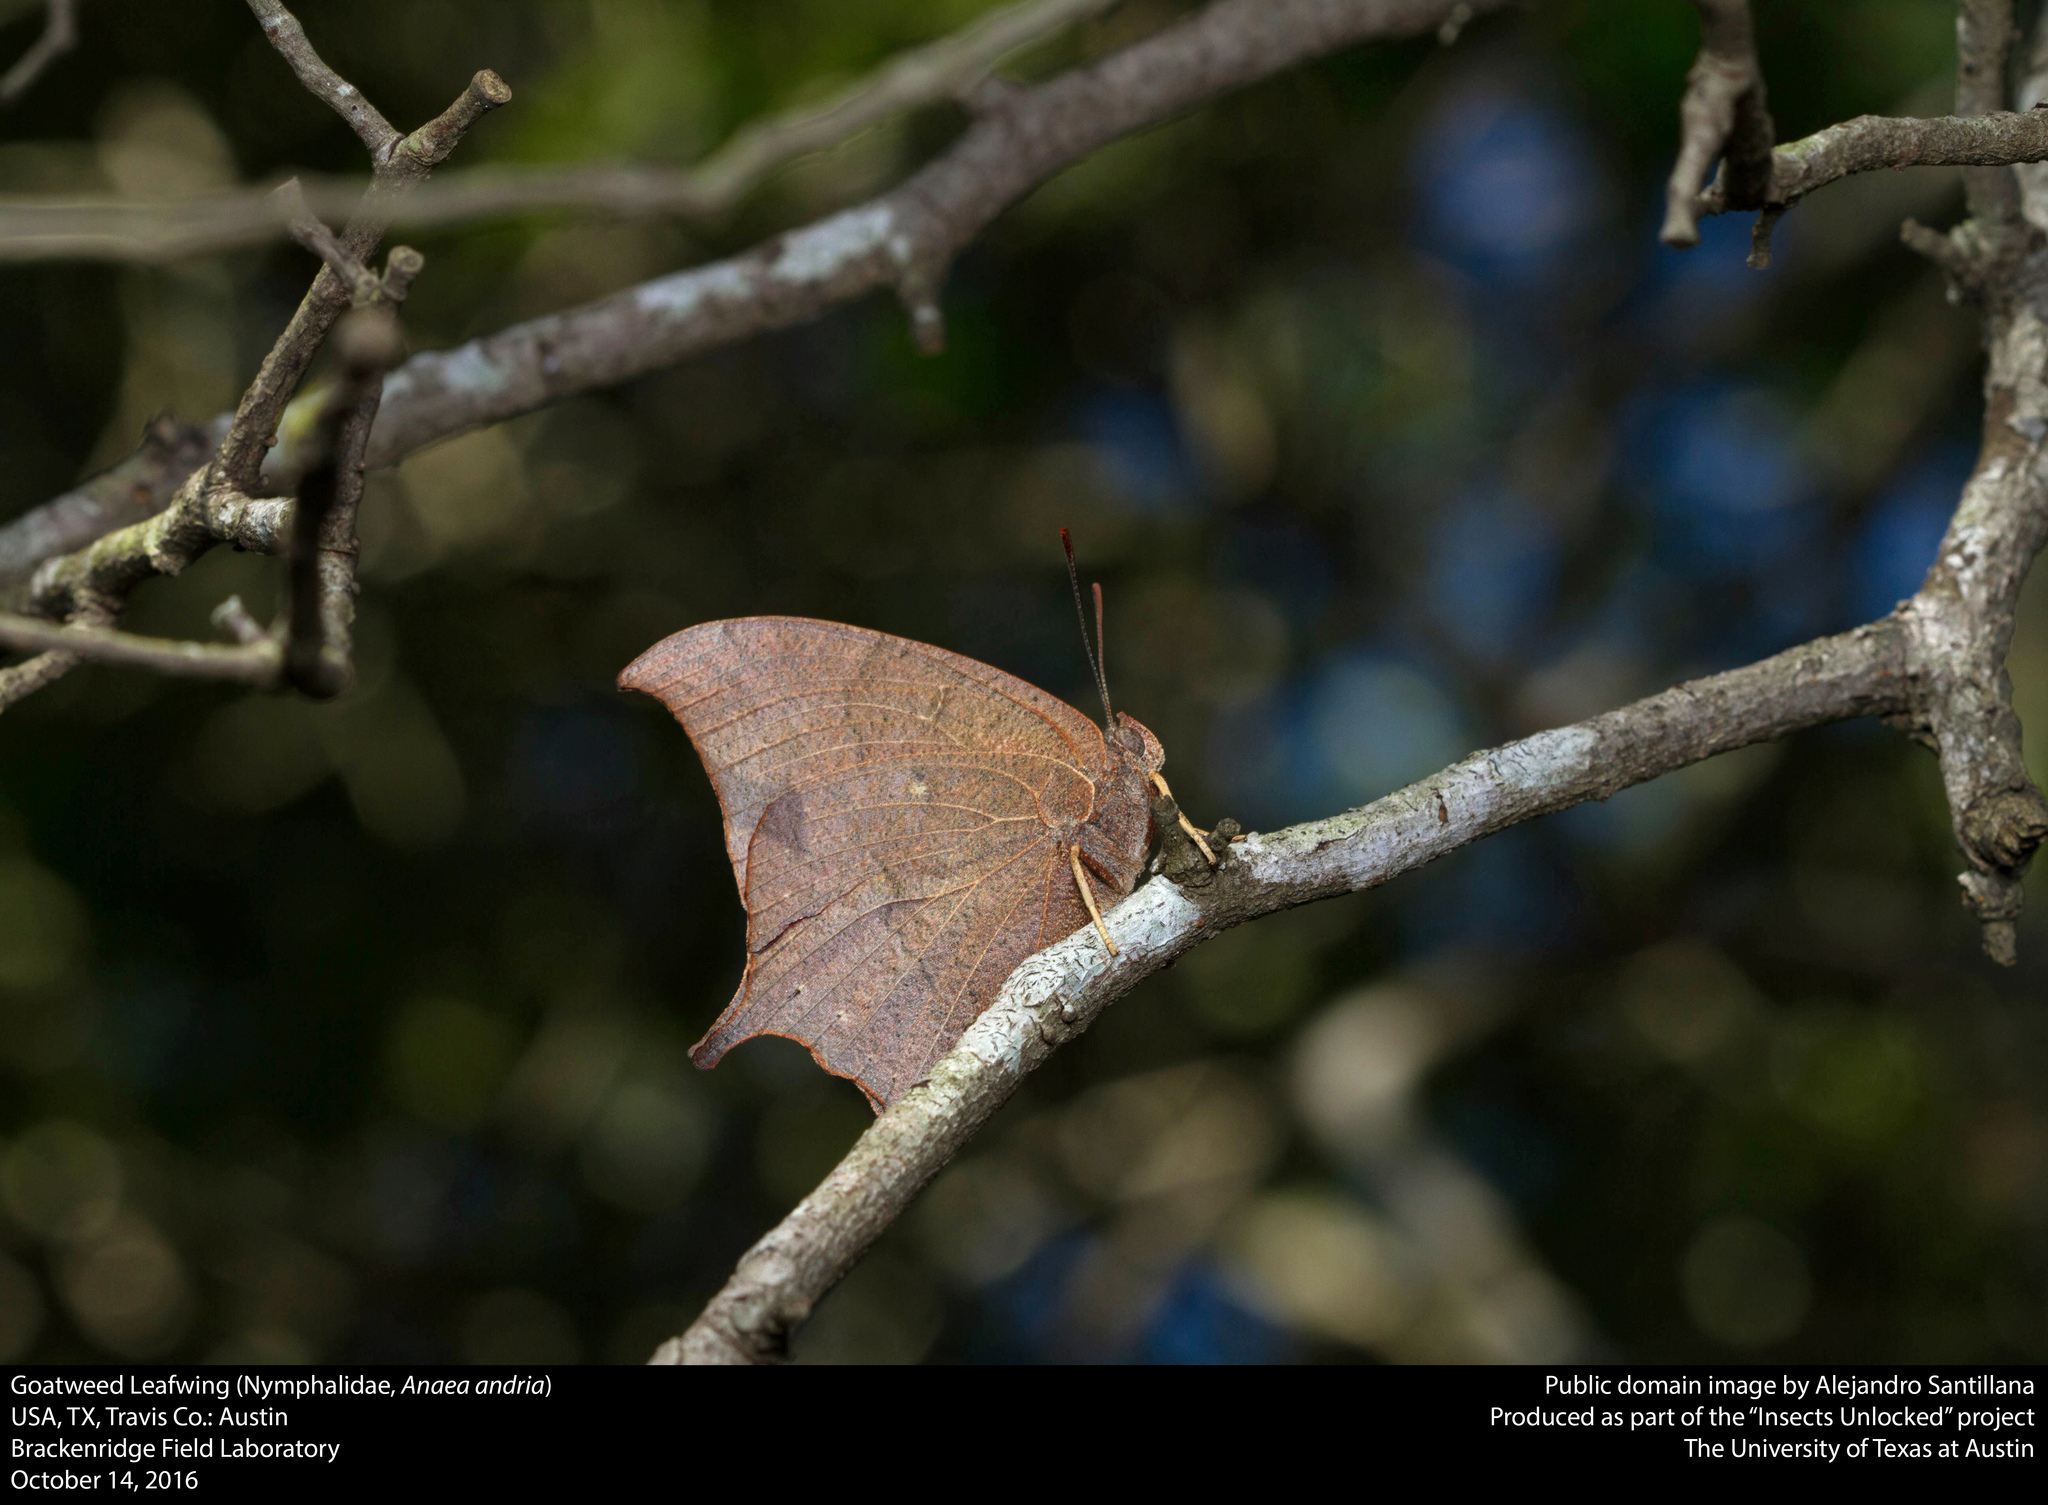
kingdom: Animalia
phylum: Arthropoda
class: Insecta
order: Lepidoptera
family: Nymphalidae
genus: Anaea
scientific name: Anaea andria
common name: Goatweed leafwing
